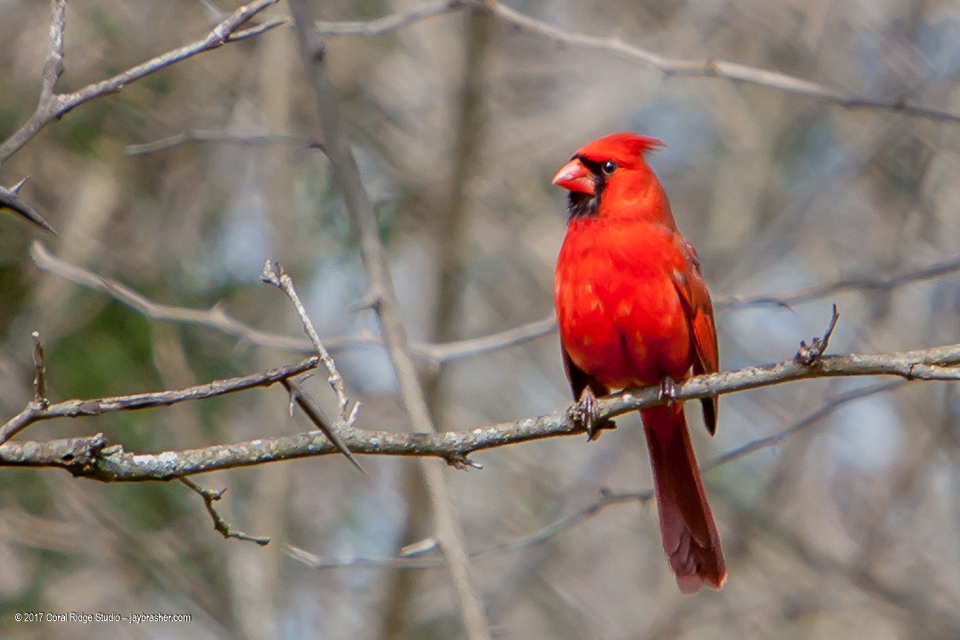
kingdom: Animalia
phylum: Chordata
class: Aves
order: Passeriformes
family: Cardinalidae
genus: Cardinalis
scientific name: Cardinalis cardinalis
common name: Northern cardinal
